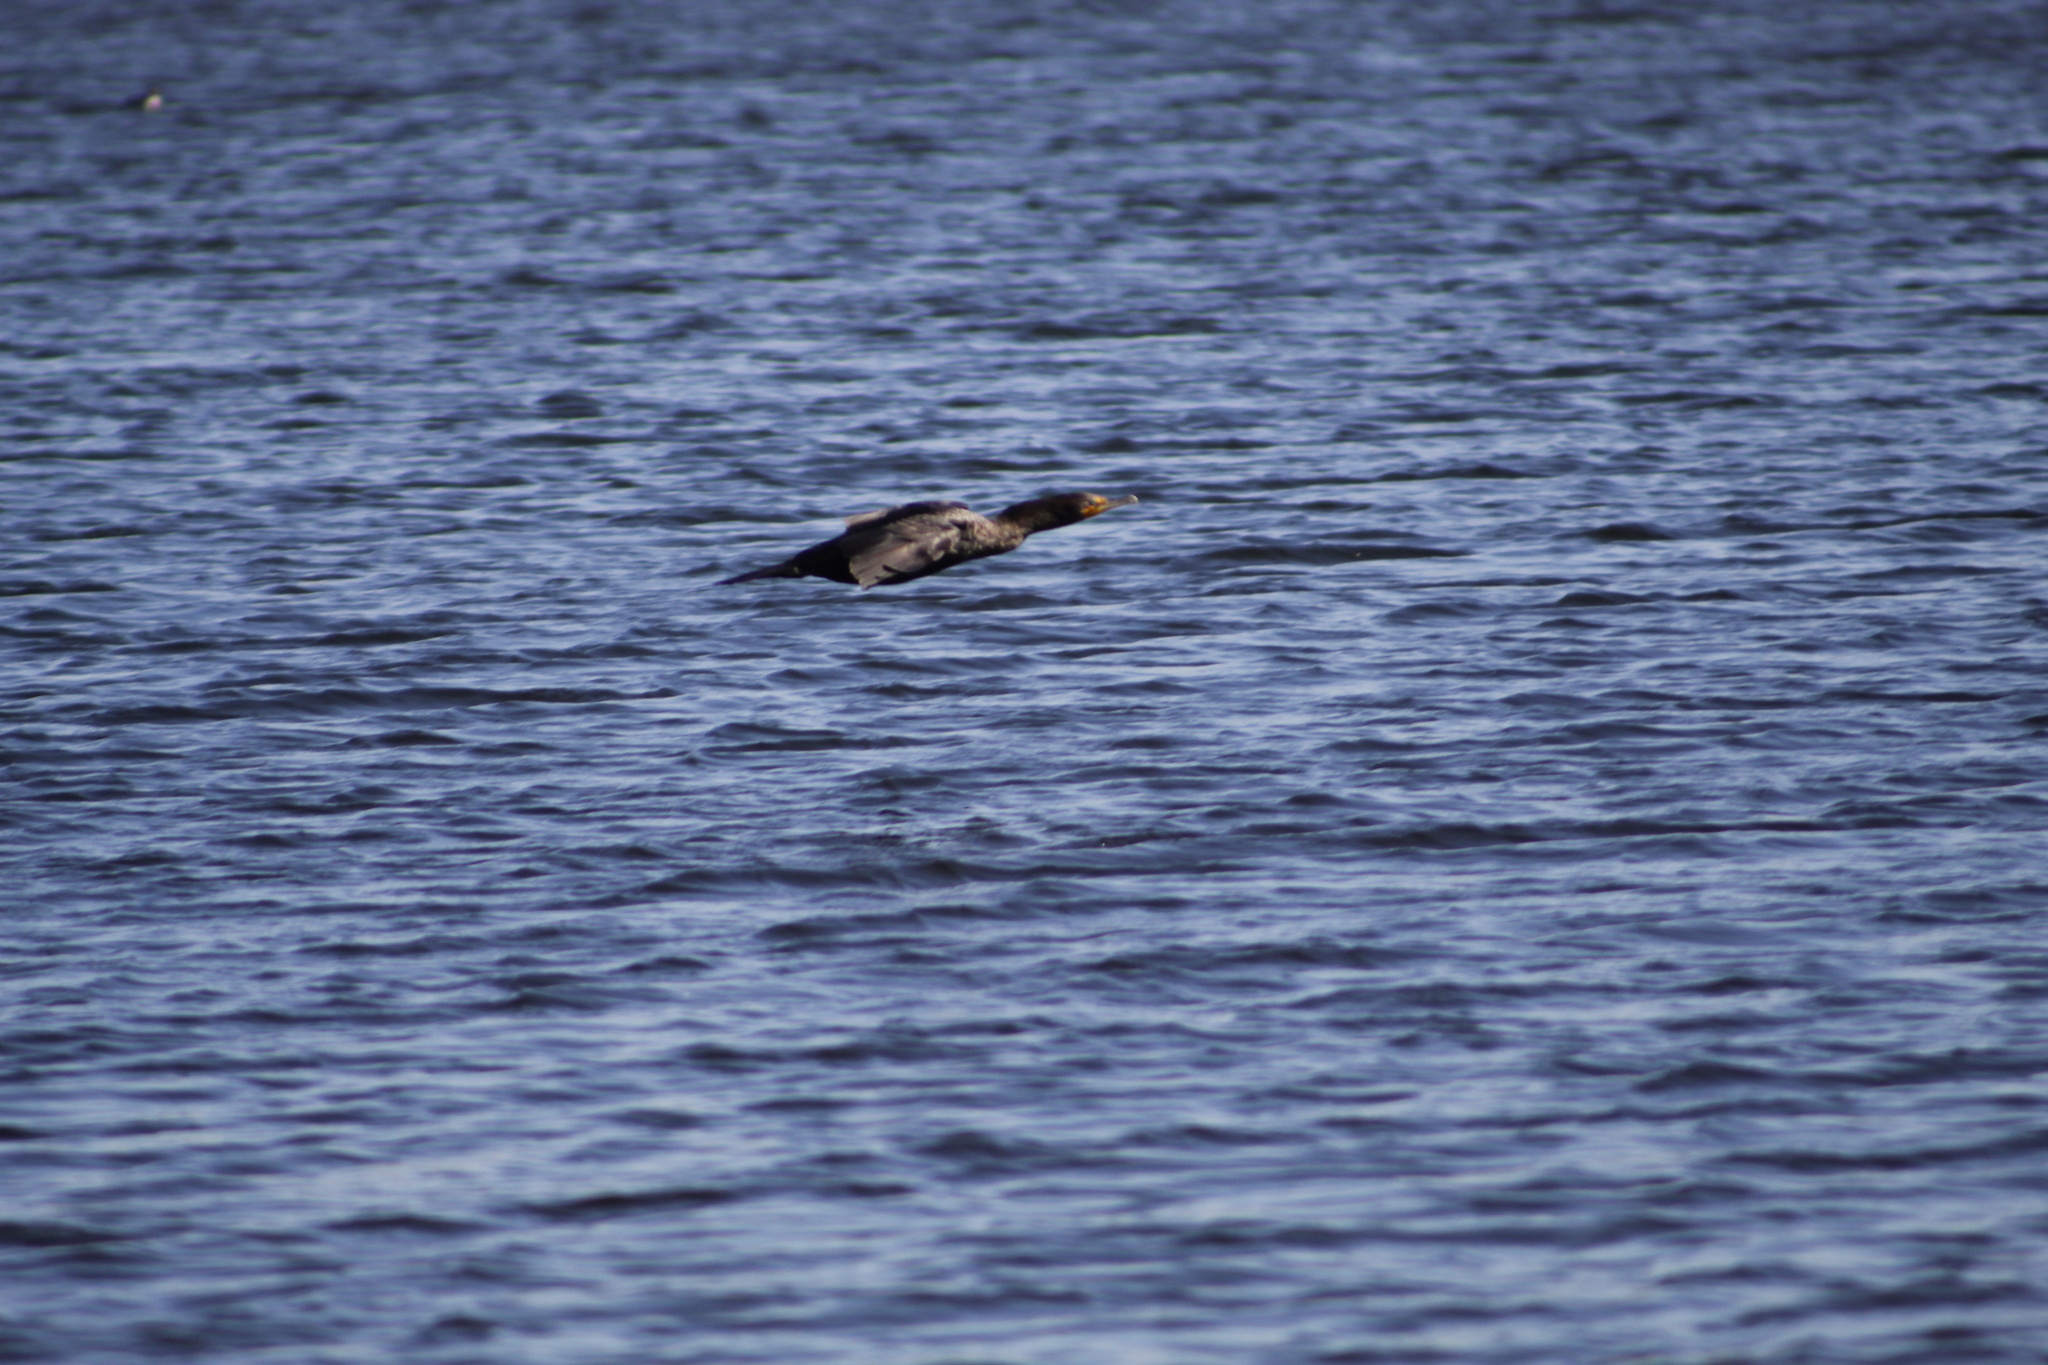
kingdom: Animalia
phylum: Chordata
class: Aves
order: Suliformes
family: Phalacrocoracidae
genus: Phalacrocorax
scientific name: Phalacrocorax auritus
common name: Double-crested cormorant
